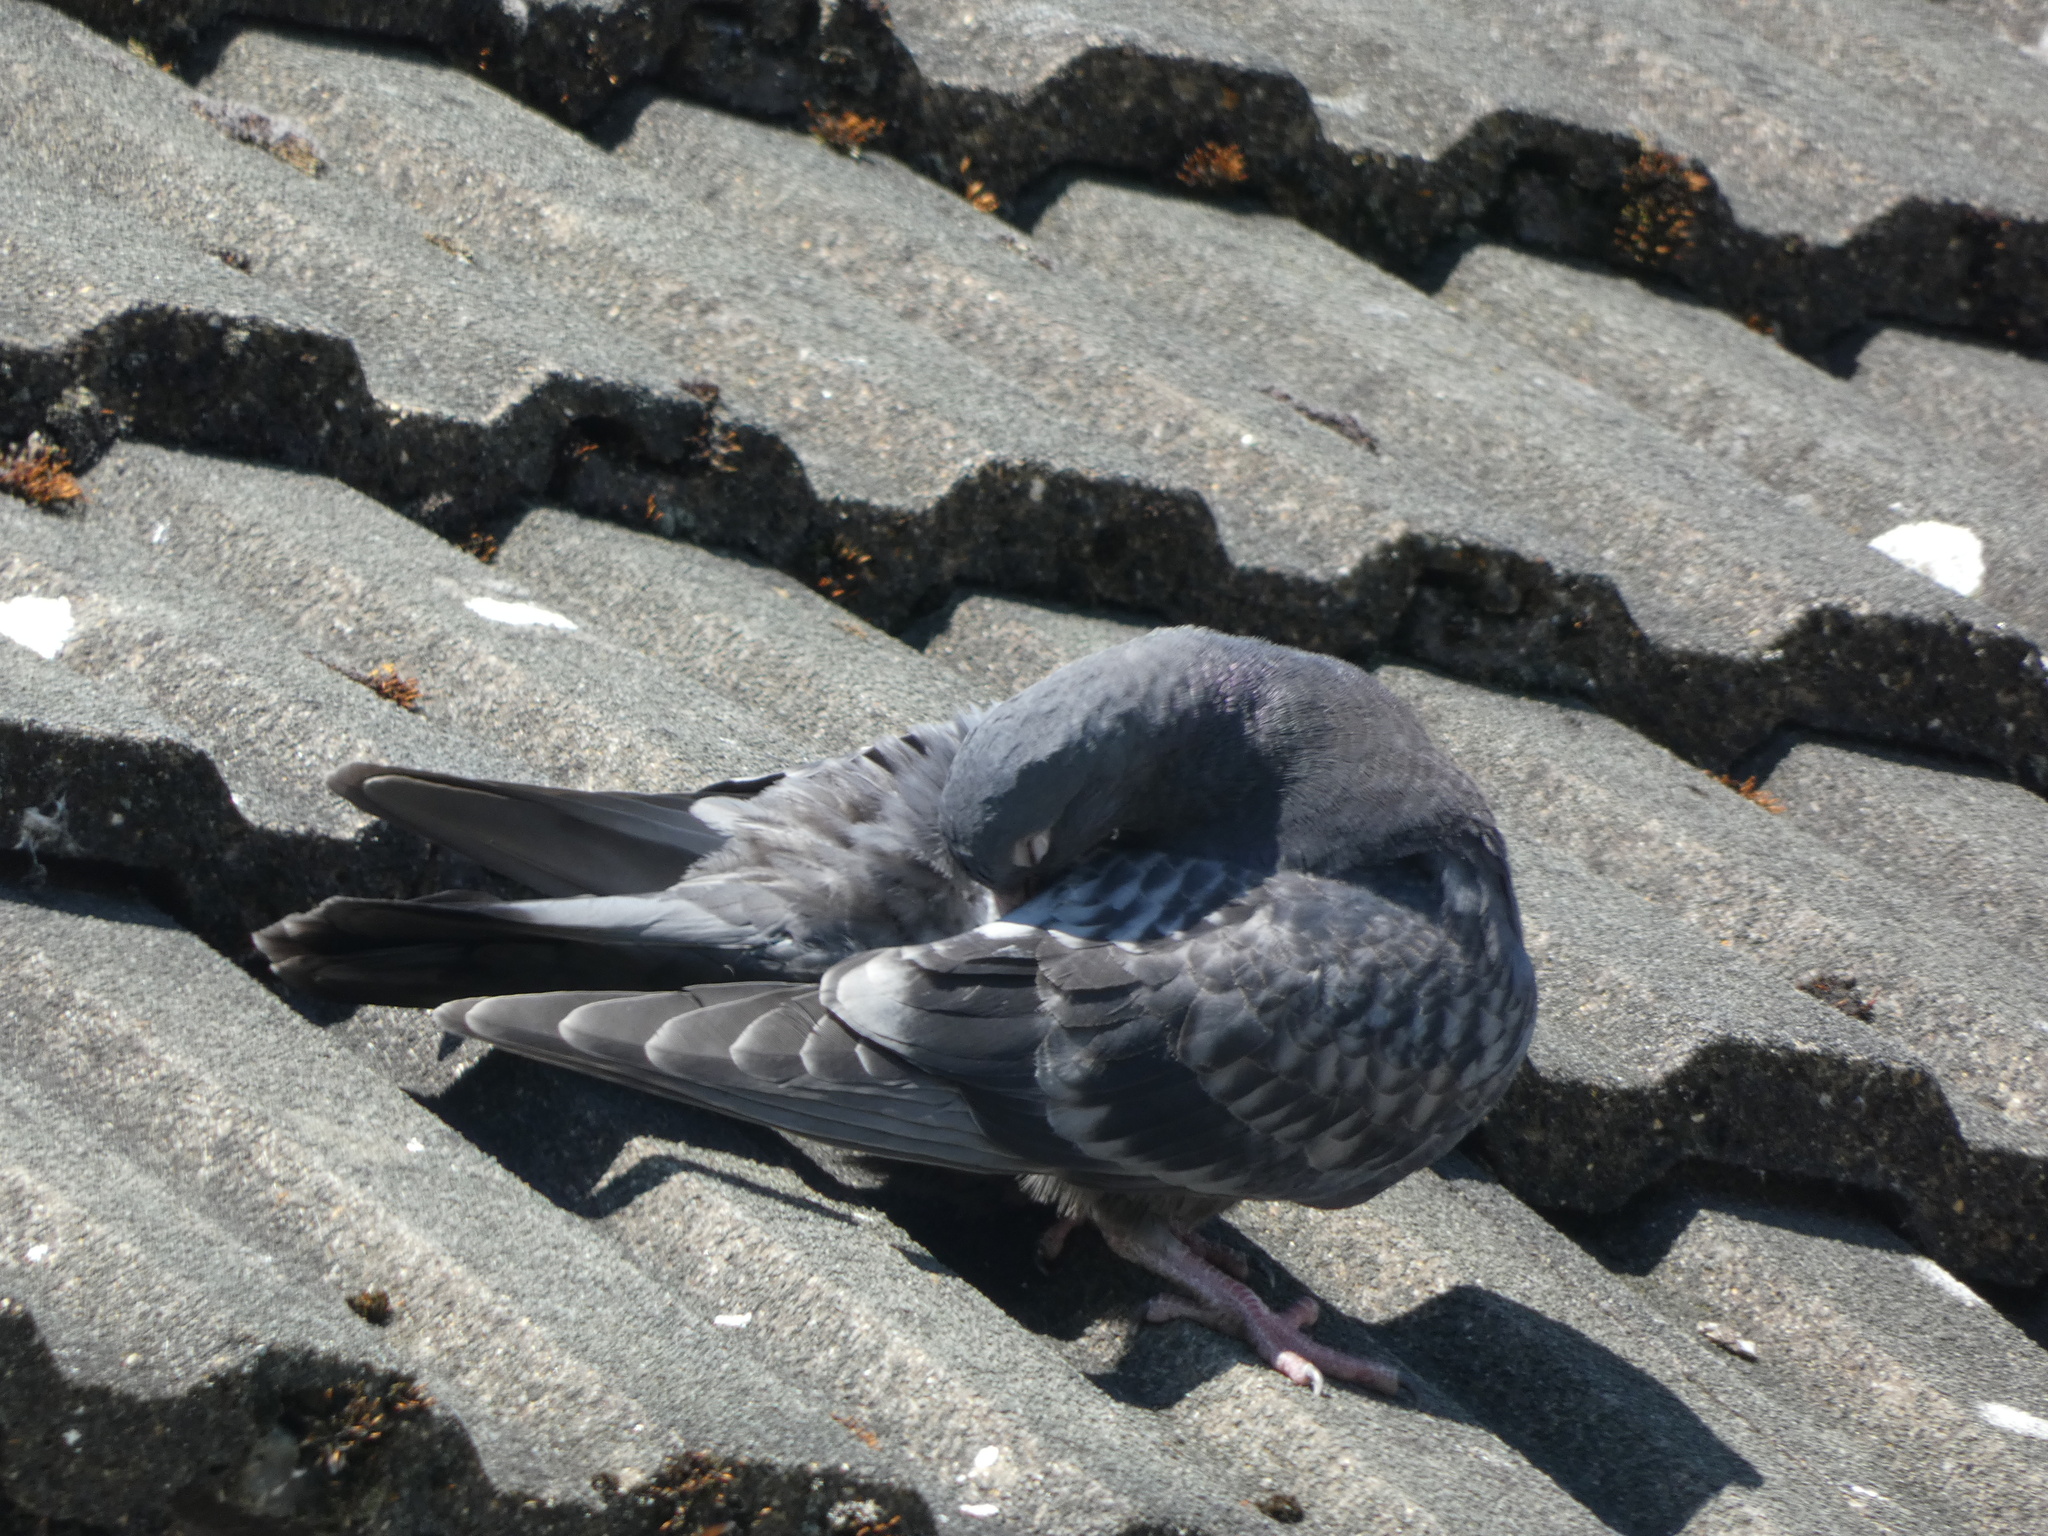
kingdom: Animalia
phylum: Chordata
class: Aves
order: Columbiformes
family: Columbidae
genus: Columba
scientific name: Columba livia
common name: Rock pigeon
